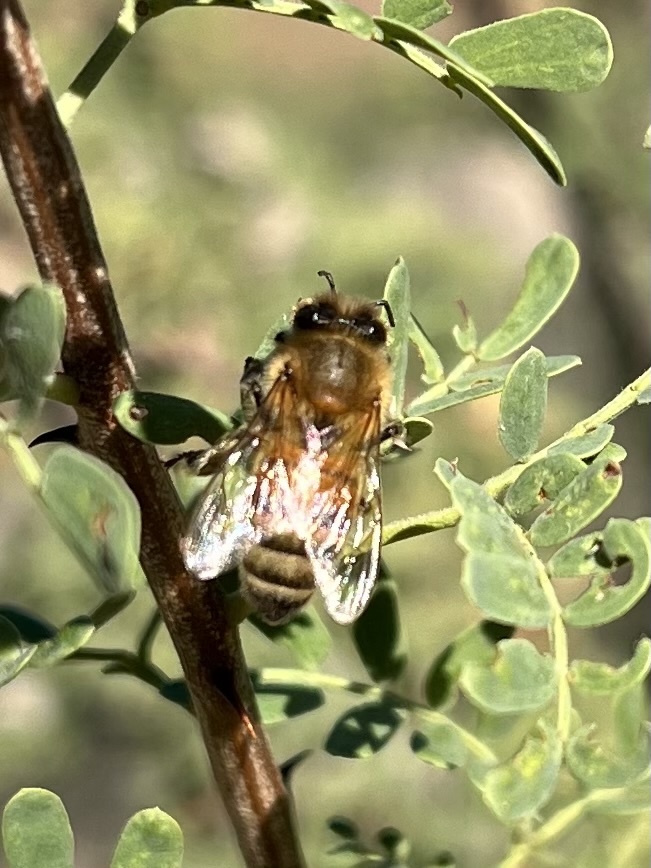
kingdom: Animalia
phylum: Arthropoda
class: Insecta
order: Hymenoptera
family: Apidae
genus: Apis
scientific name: Apis mellifera
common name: Honey bee
